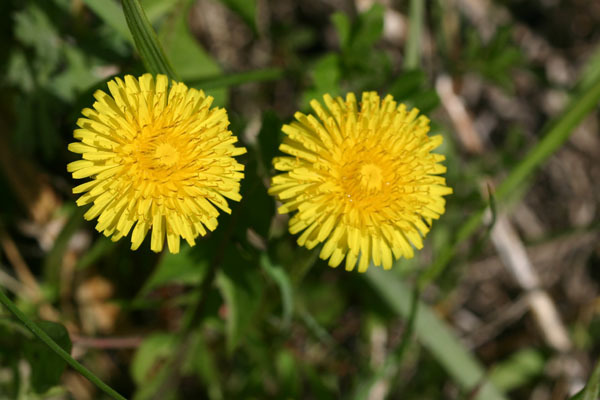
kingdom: Plantae
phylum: Tracheophyta
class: Magnoliopsida
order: Asterales
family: Asteraceae
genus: Taraxacum
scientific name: Taraxacum officinale
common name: Common dandelion
